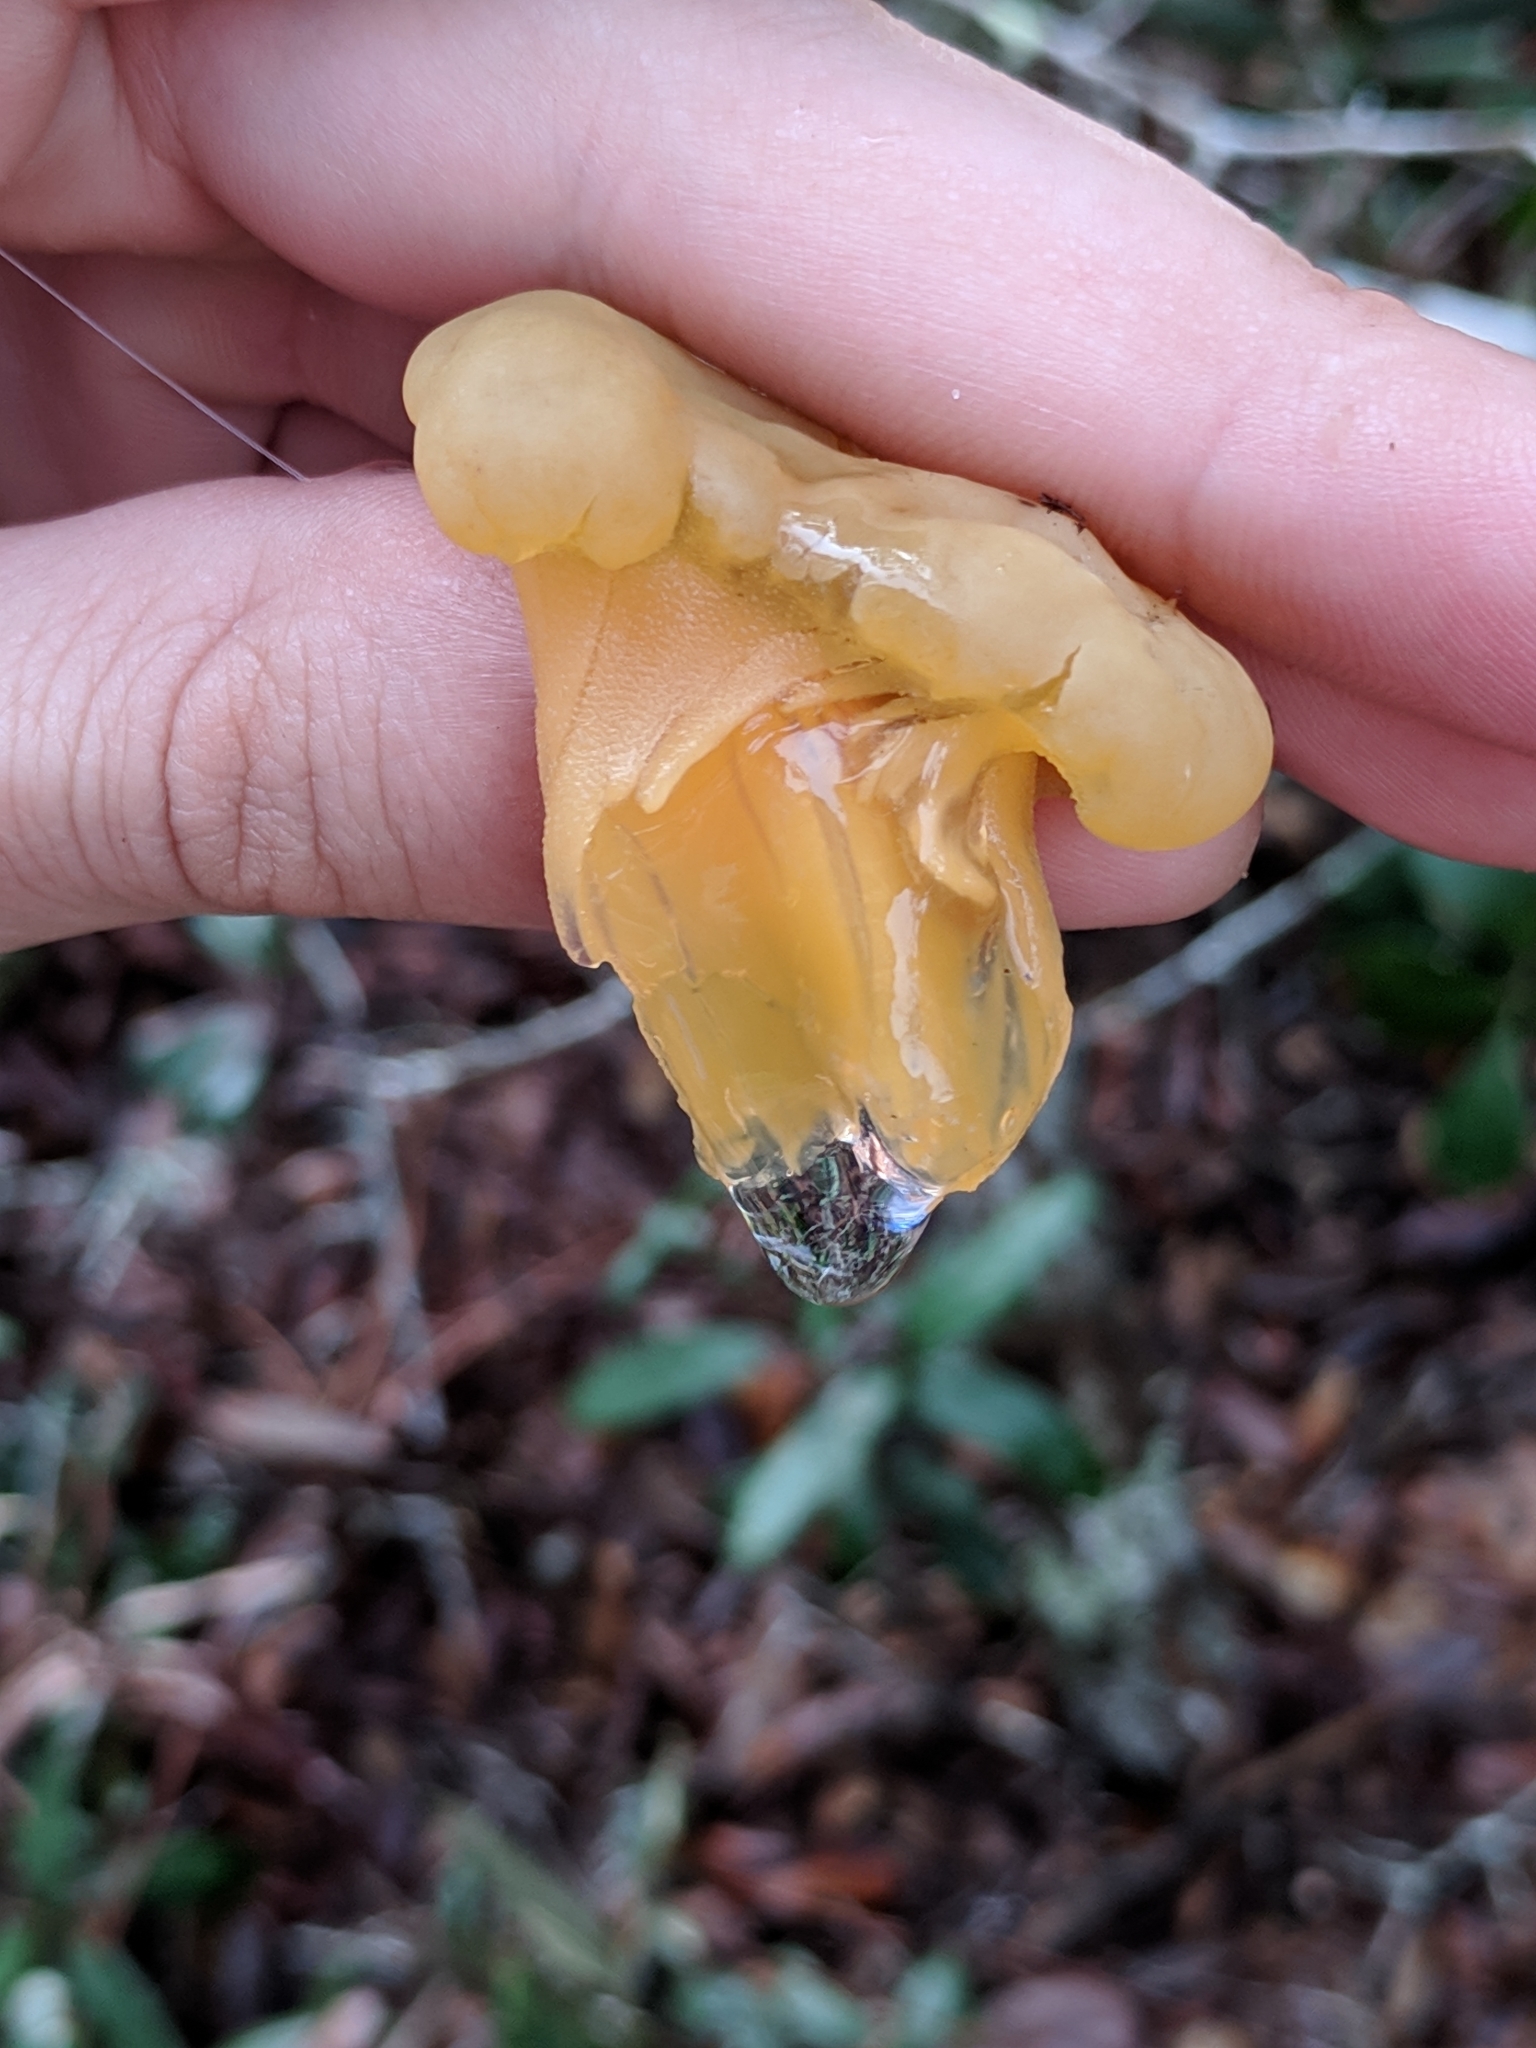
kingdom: Fungi
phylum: Ascomycota
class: Leotiomycetes
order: Leotiales
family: Leotiaceae
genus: Leotia
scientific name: Leotia lubrica
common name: Jellybaby
